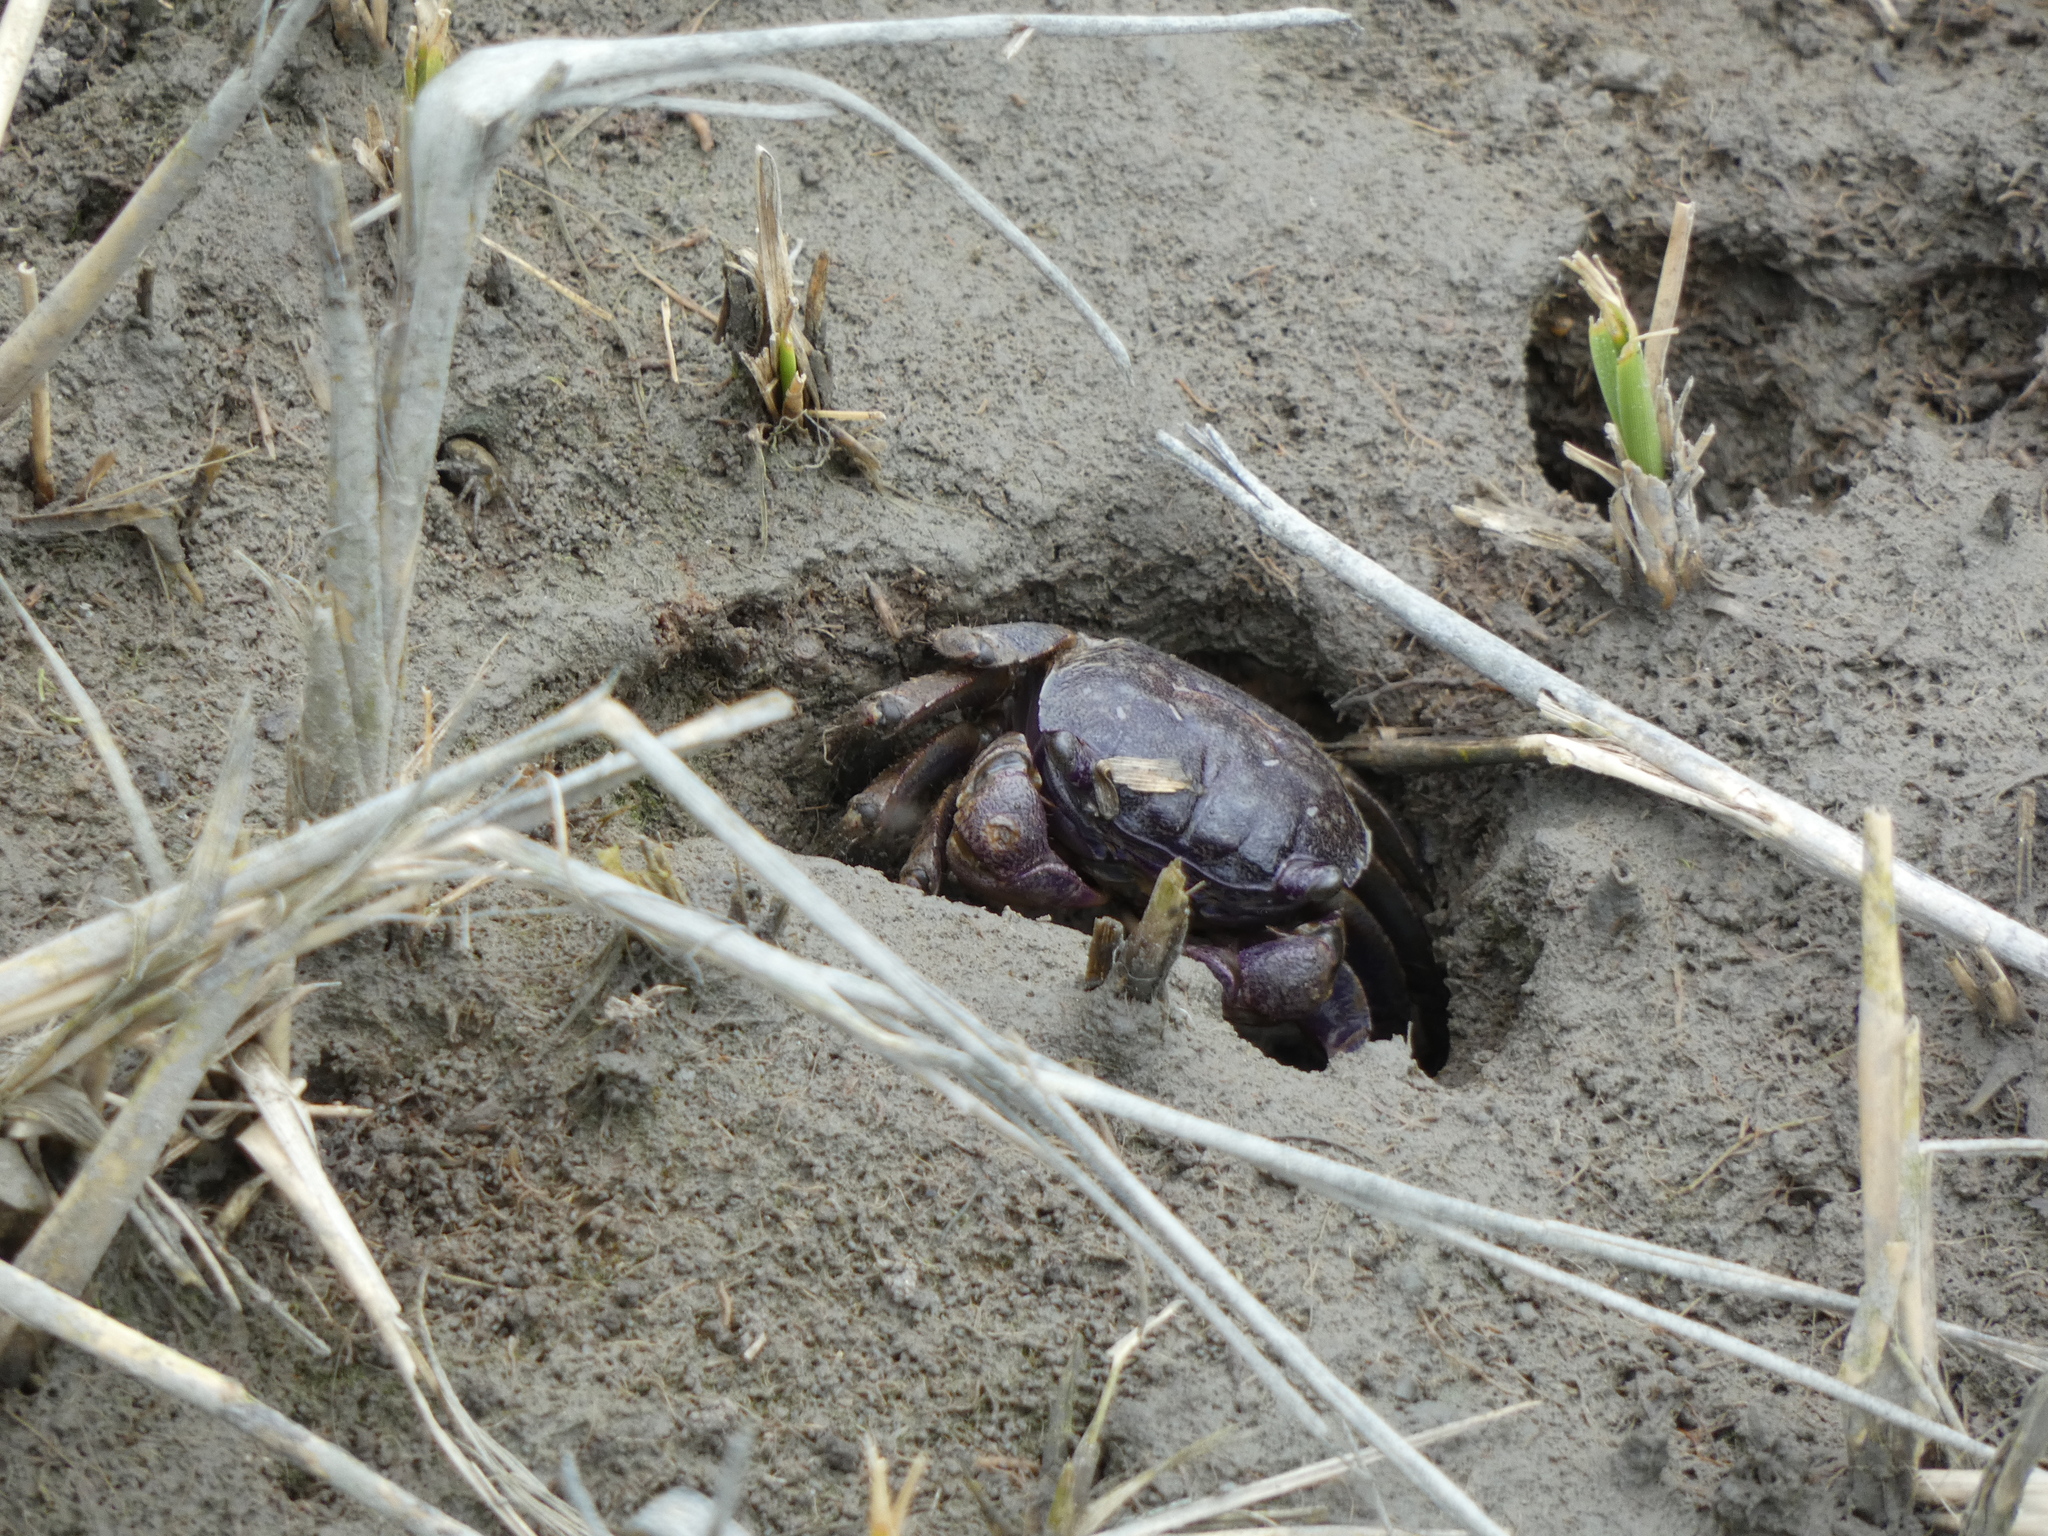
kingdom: Animalia
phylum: Arthropoda
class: Malacostraca
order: Decapoda
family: Sesarmidae
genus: Sesarma
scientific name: Sesarma reticulatum
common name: Heavy marsh crab
